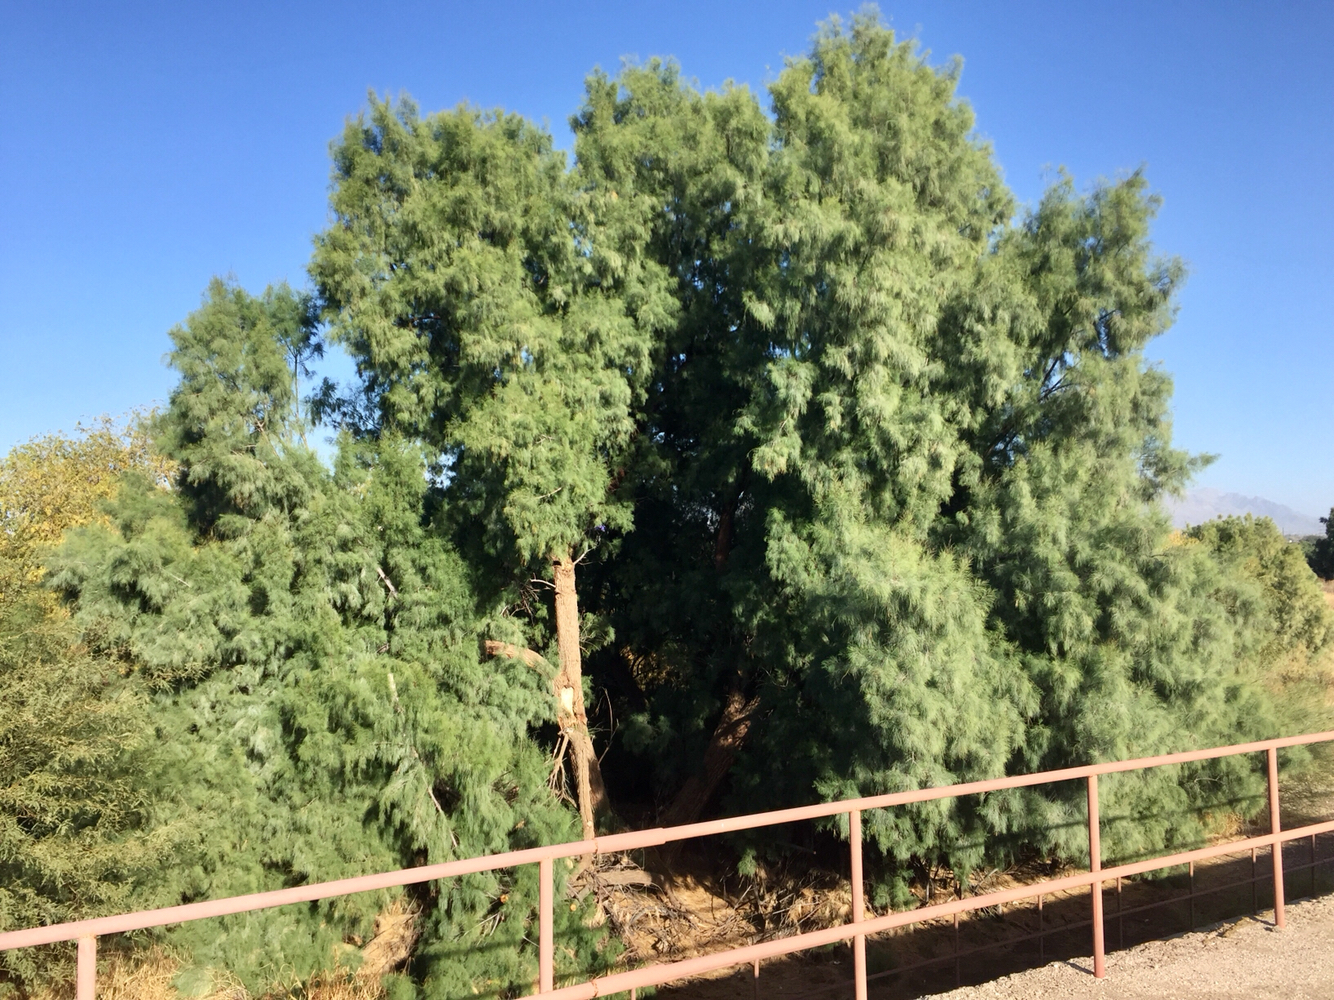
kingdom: Plantae
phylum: Tracheophyta
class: Magnoliopsida
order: Caryophyllales
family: Tamaricaceae
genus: Tamarix
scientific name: Tamarix aphylla
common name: Athel tamarisk
